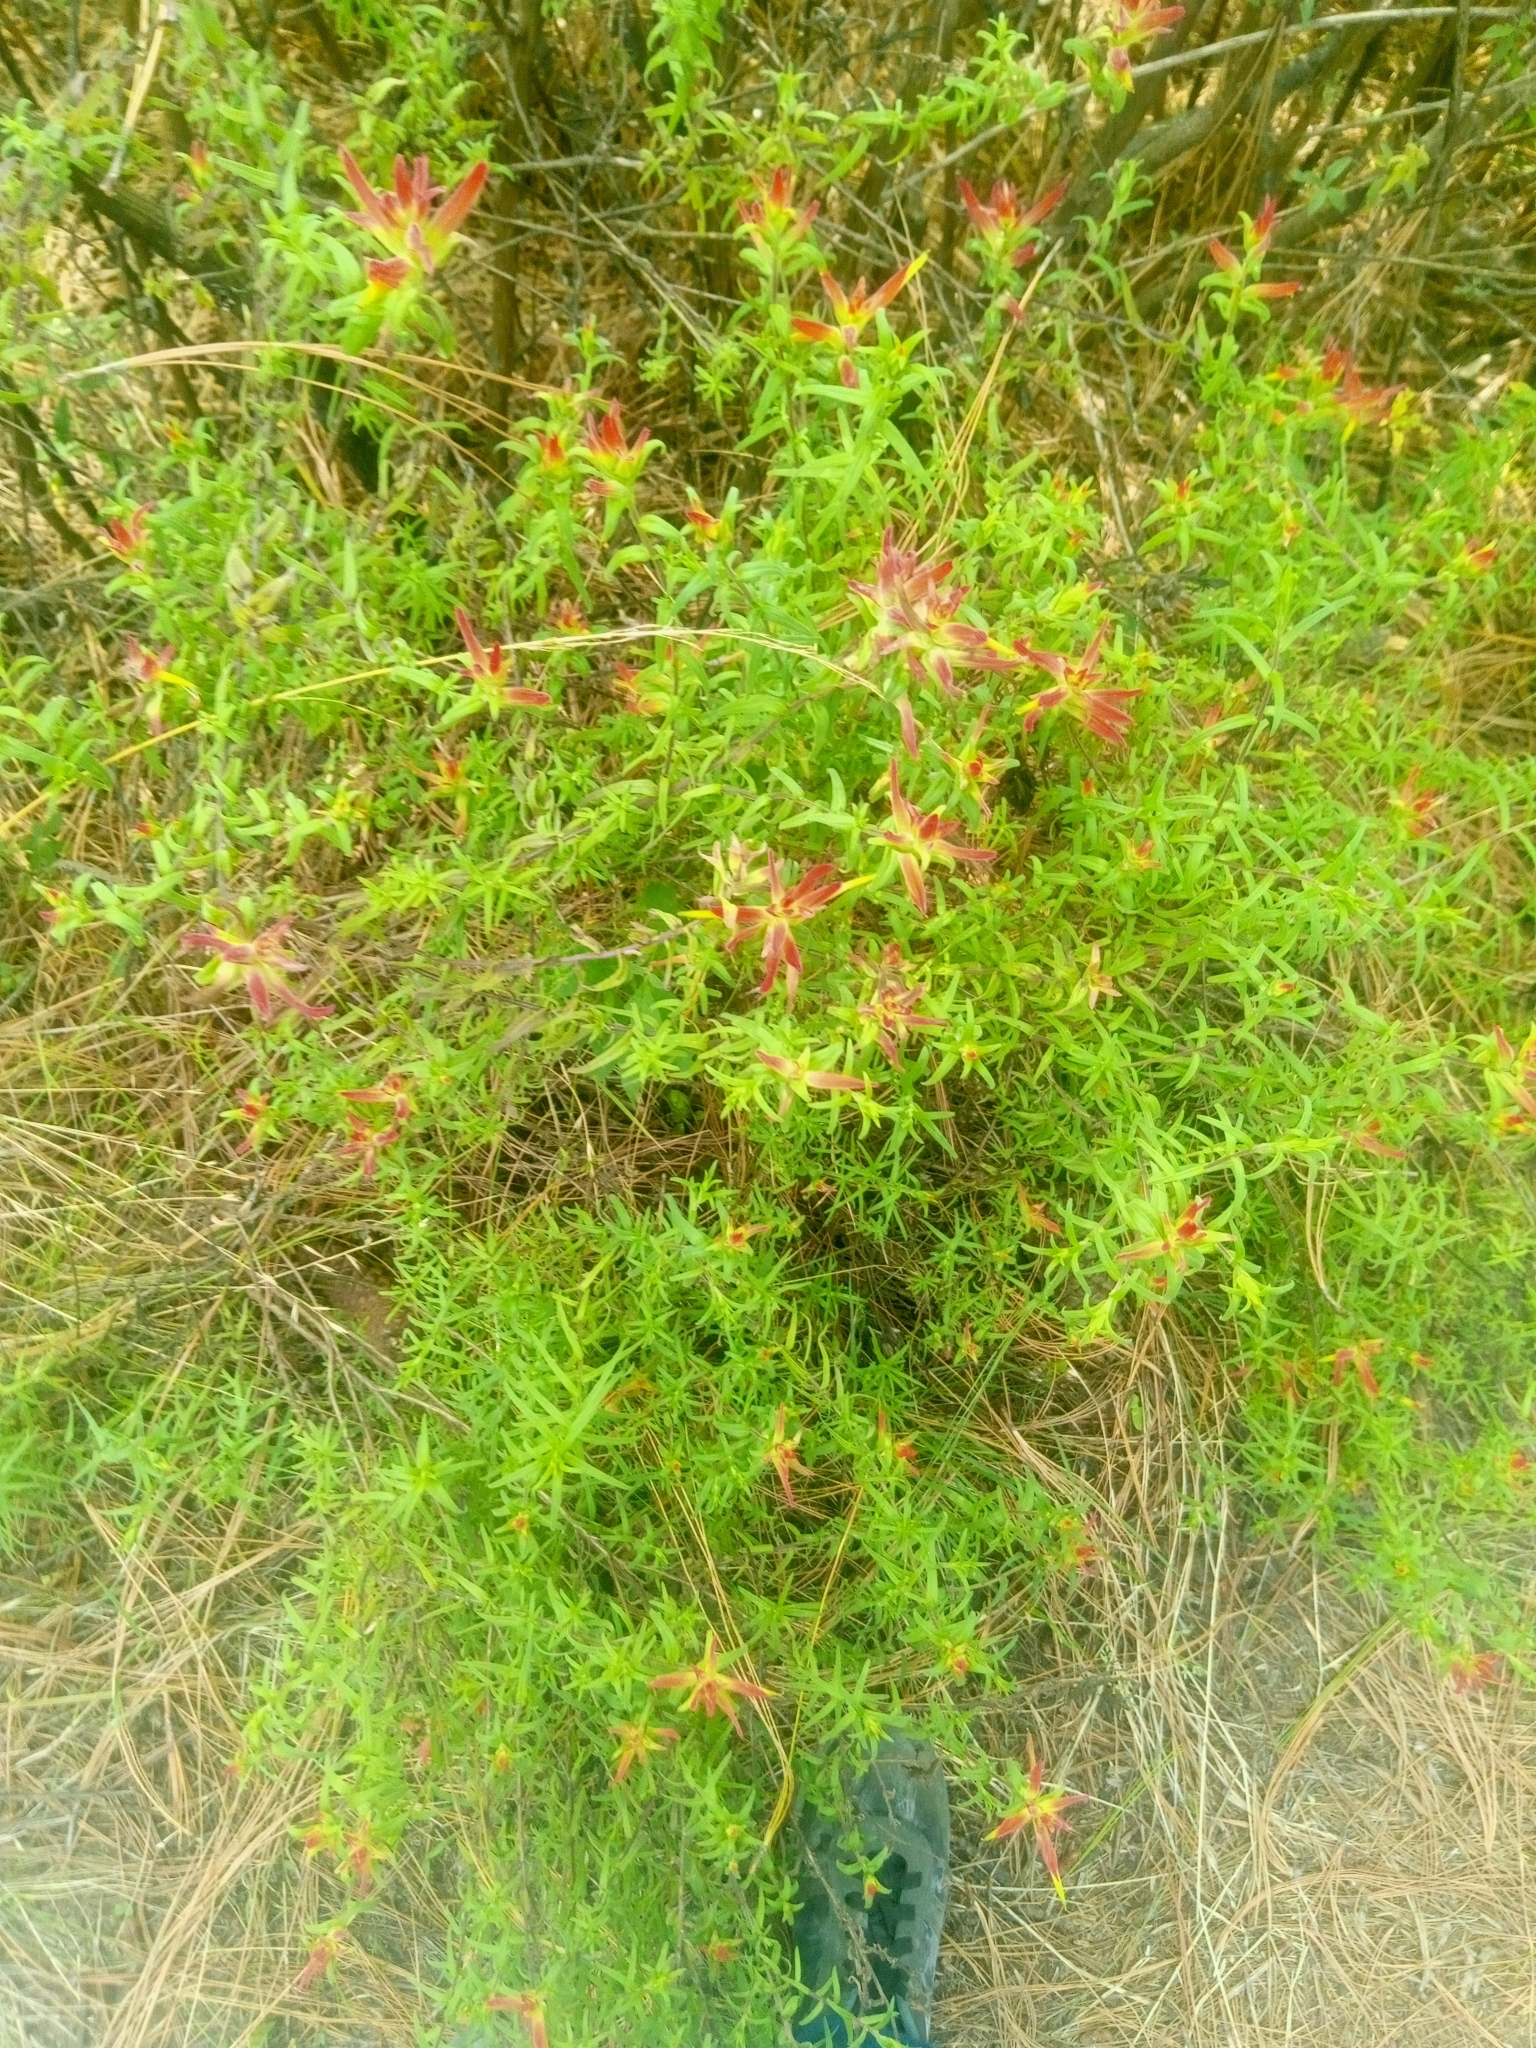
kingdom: Plantae
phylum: Tracheophyta
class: Magnoliopsida
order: Lamiales
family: Orobanchaceae
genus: Castilleja
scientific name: Castilleja tenuiflora
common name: Santa catalina indian paintbrush
